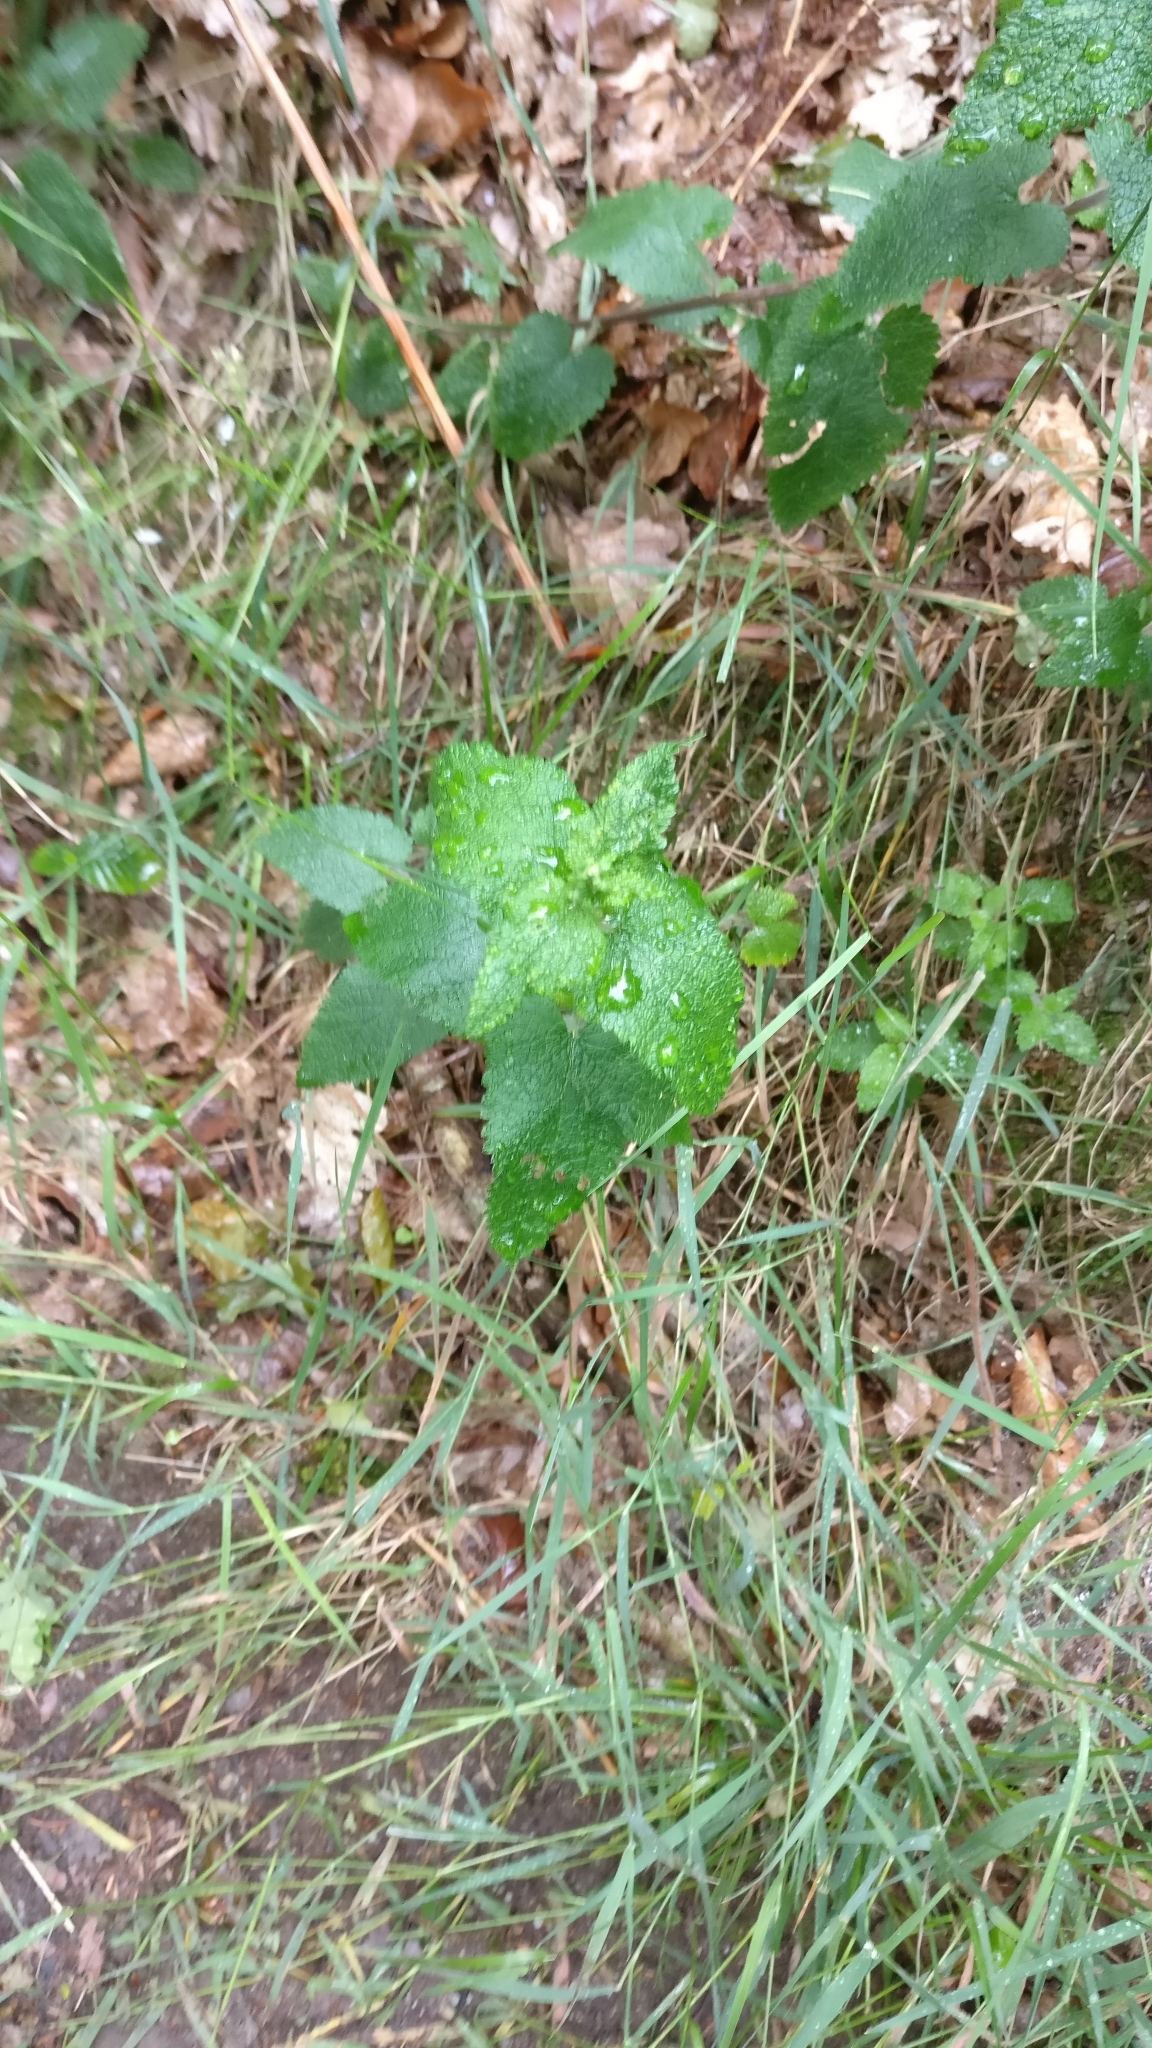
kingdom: Plantae
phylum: Tracheophyta
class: Magnoliopsida
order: Lamiales
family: Lamiaceae
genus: Teucrium
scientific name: Teucrium scorodonia
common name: Woodland germander
